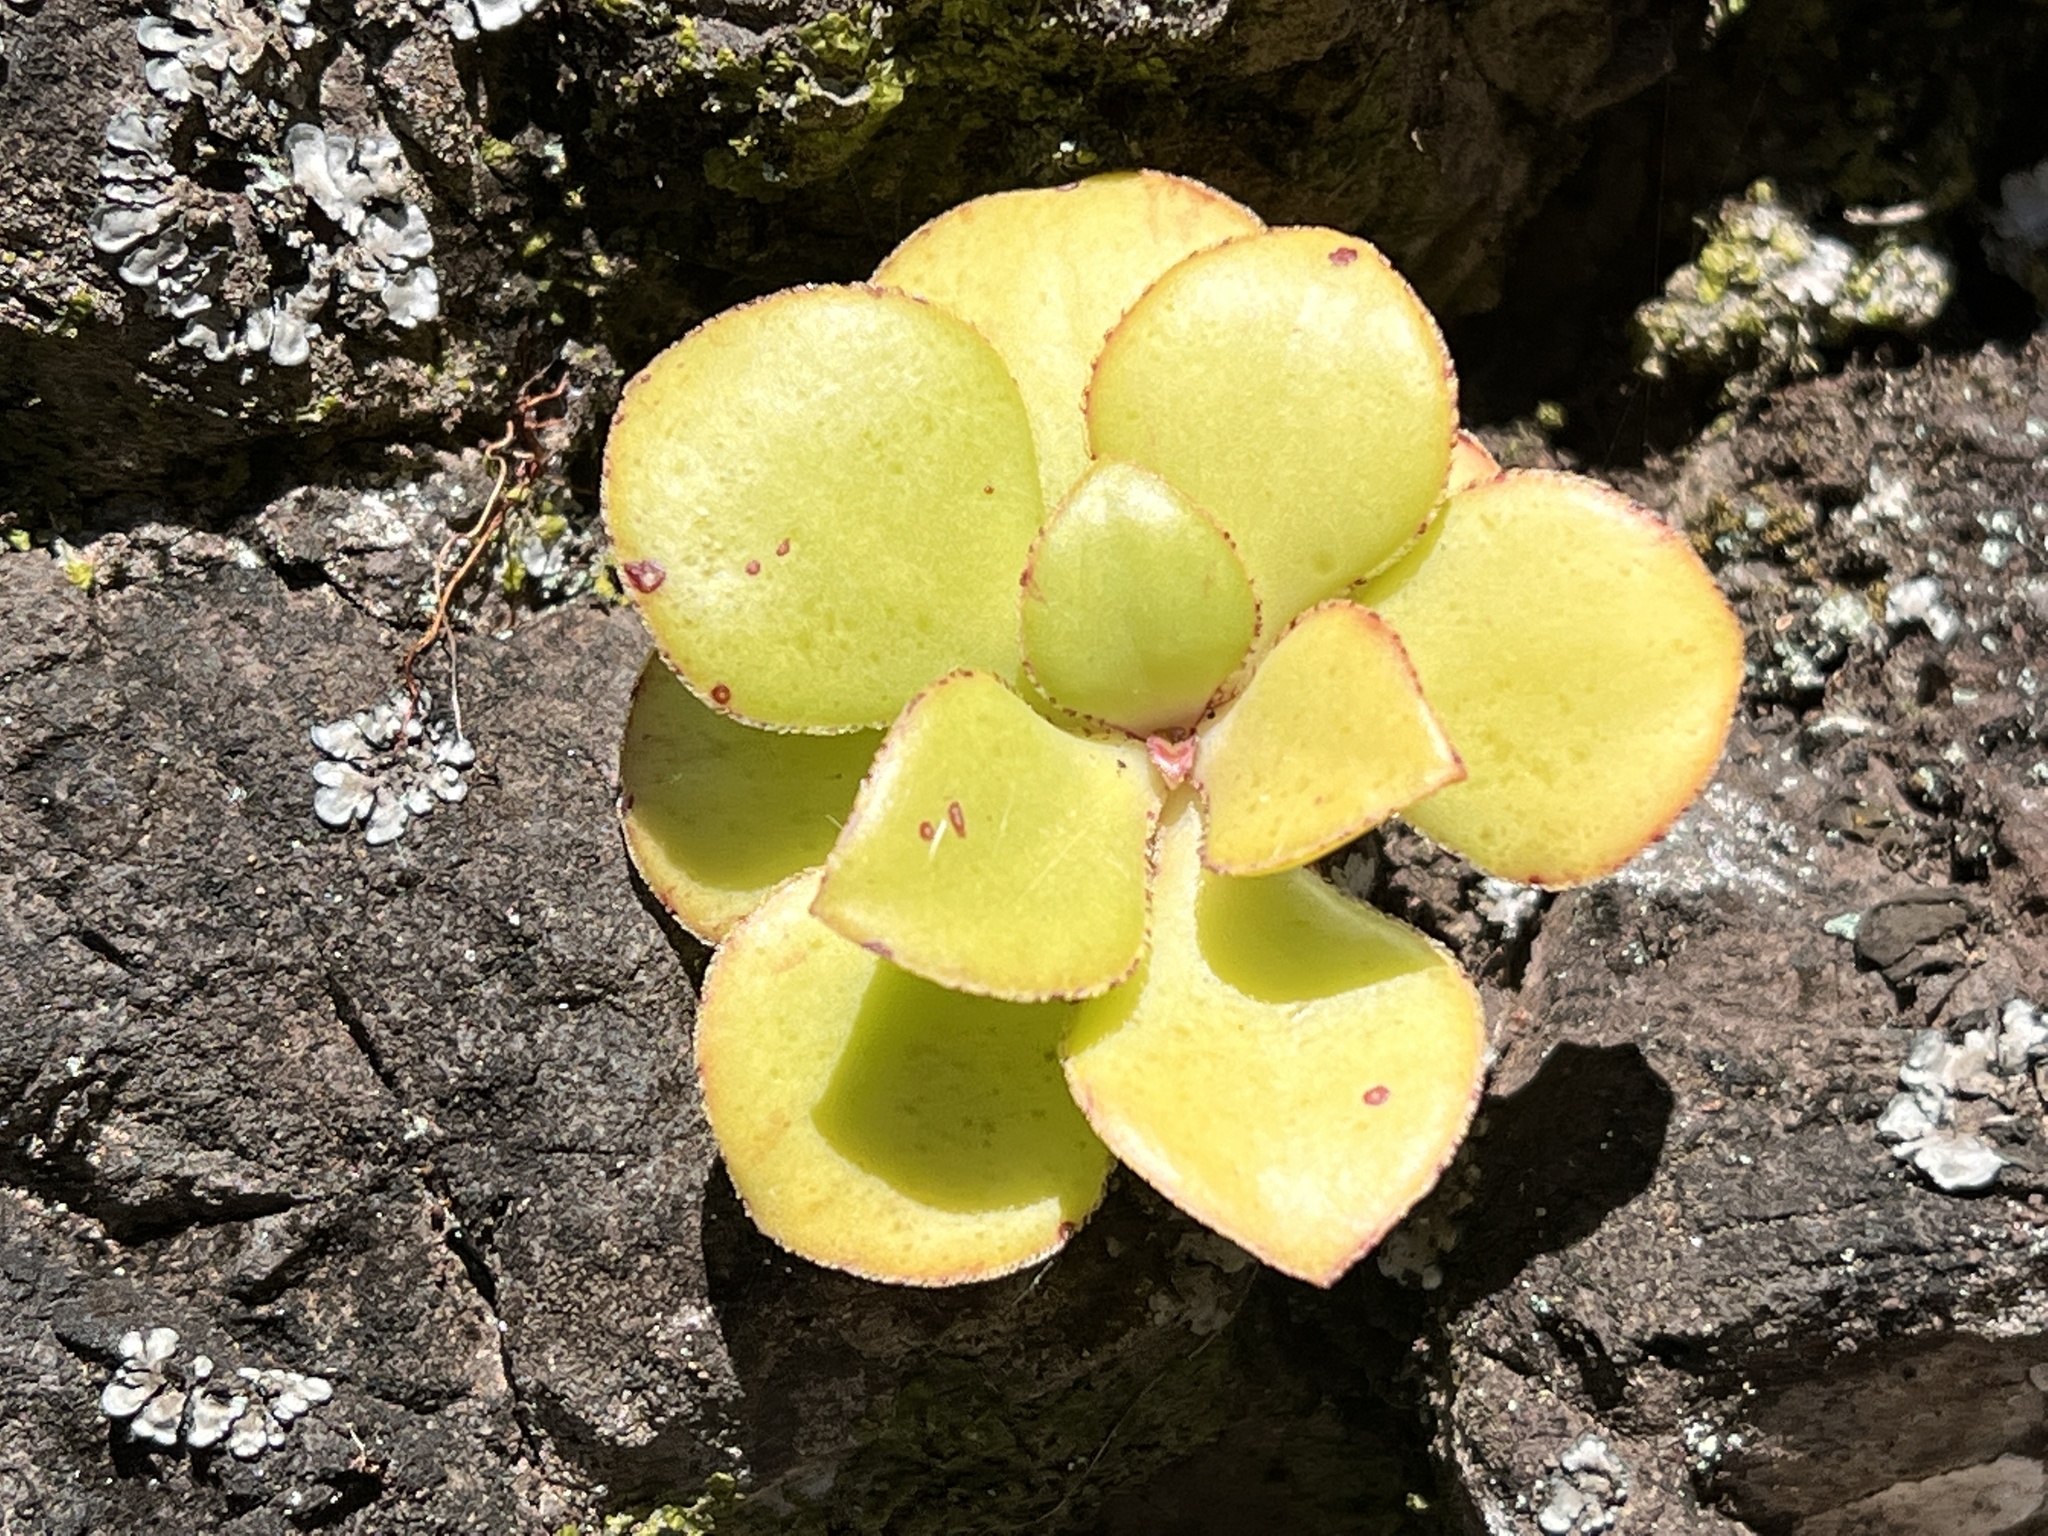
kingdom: Plantae
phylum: Tracheophyta
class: Magnoliopsida
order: Saxifragales
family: Crassulaceae
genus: Aeonium
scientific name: Aeonium glutinosum
